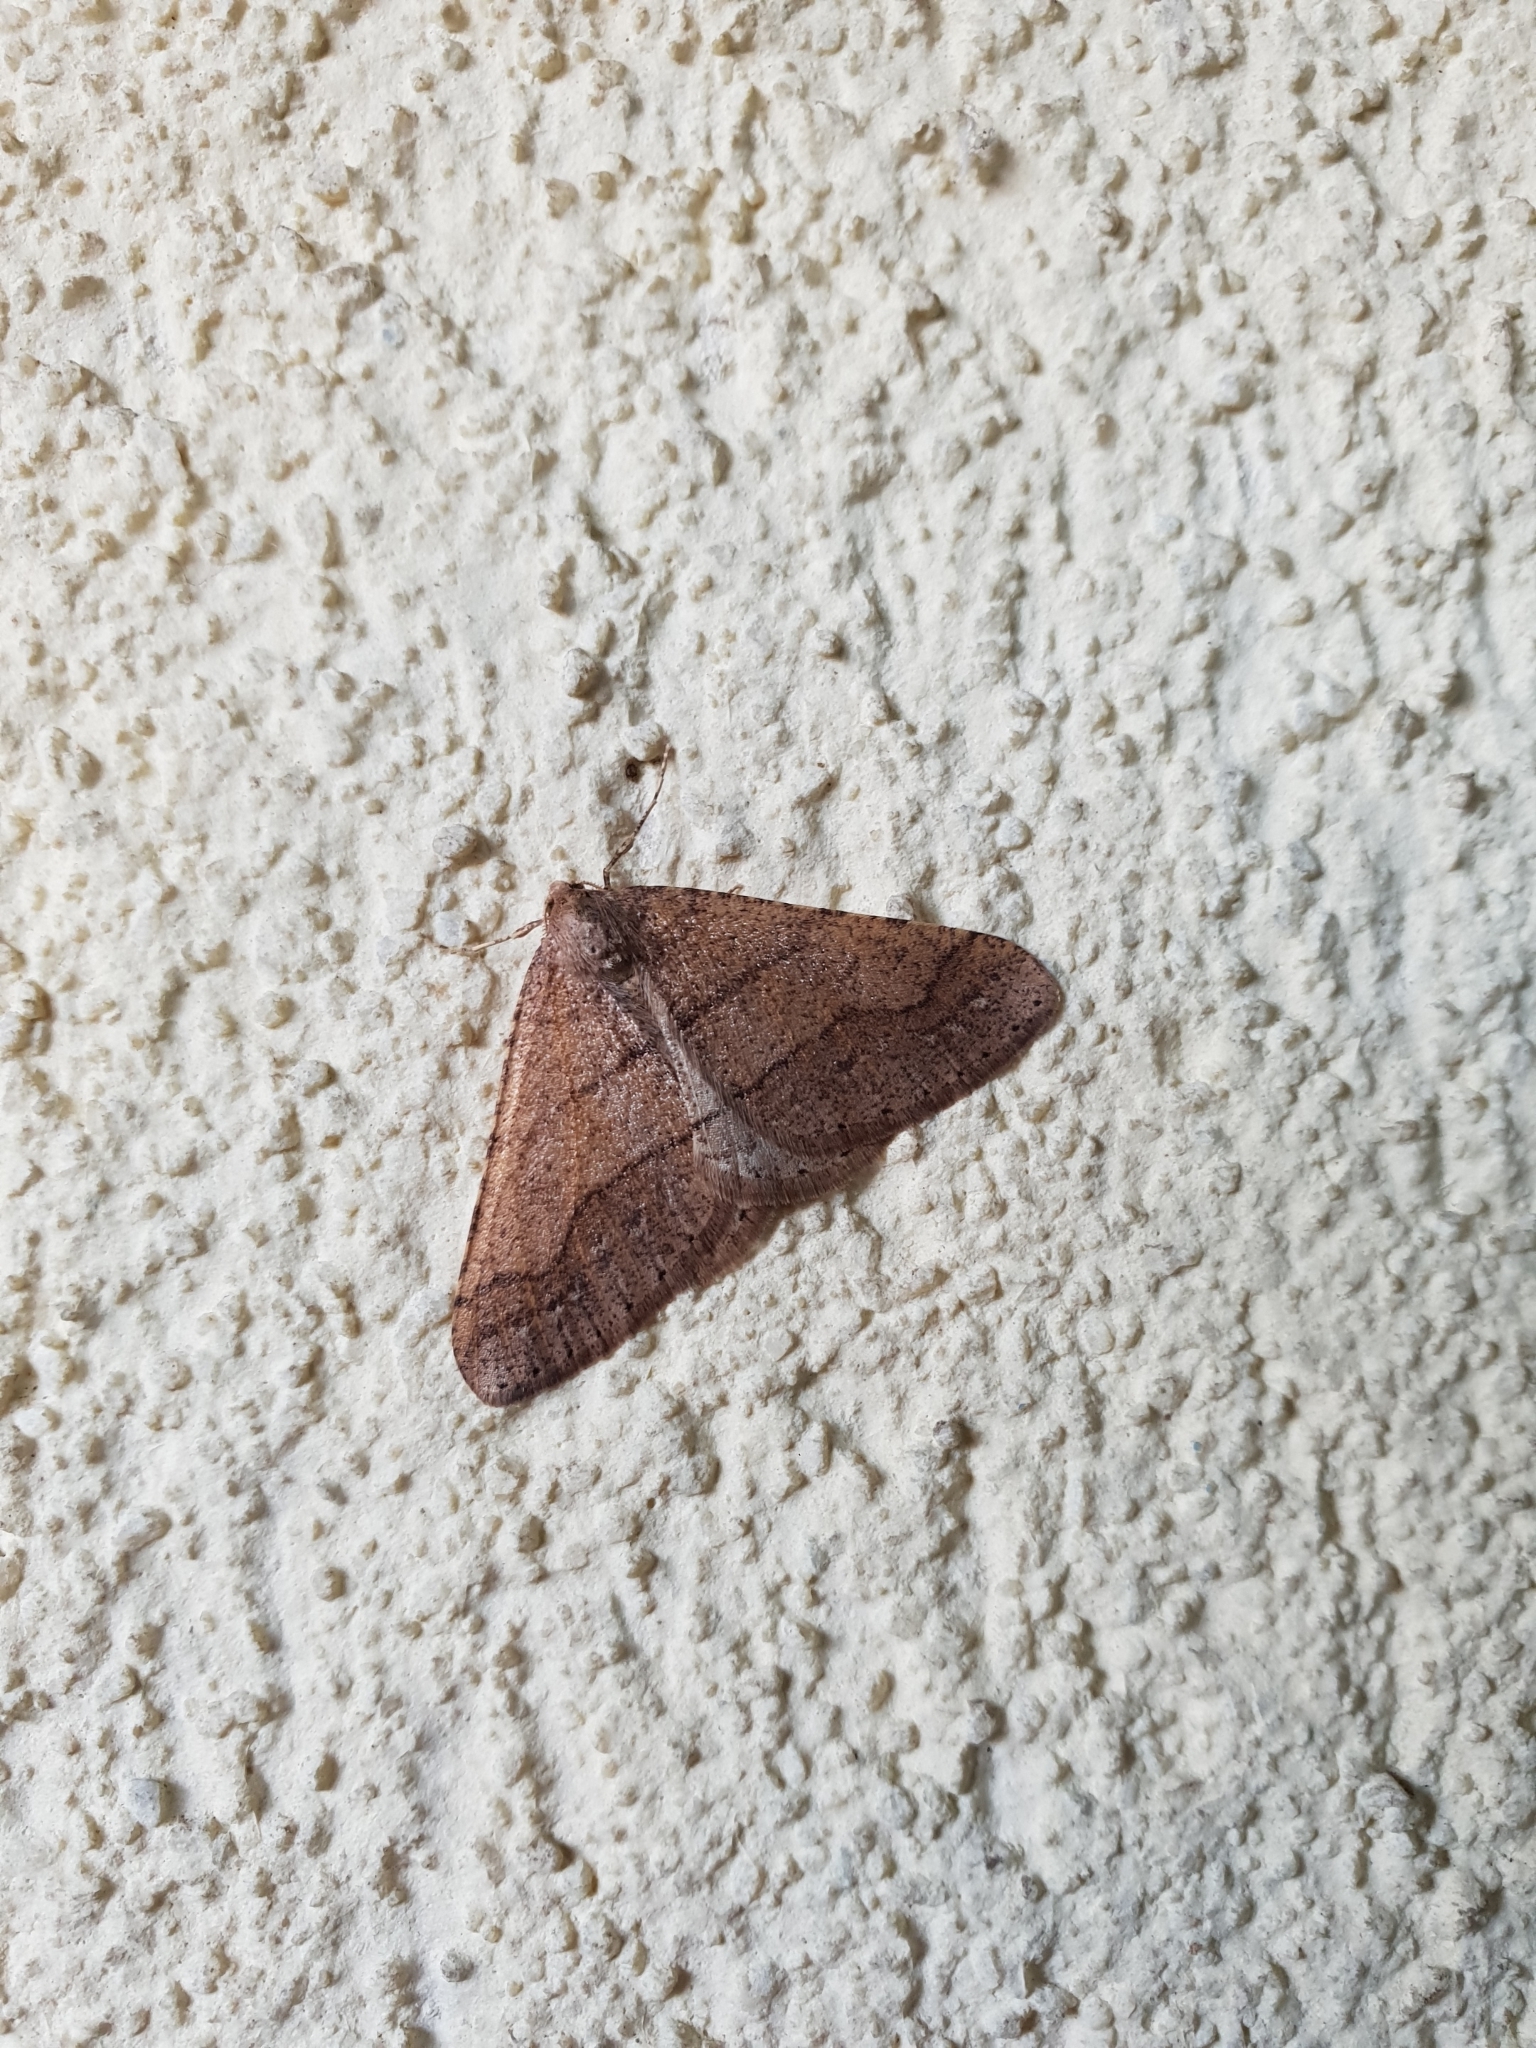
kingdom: Animalia
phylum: Arthropoda
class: Insecta
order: Lepidoptera
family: Geometridae
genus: Agriopis
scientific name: Agriopis marginaria
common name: Dotted border
